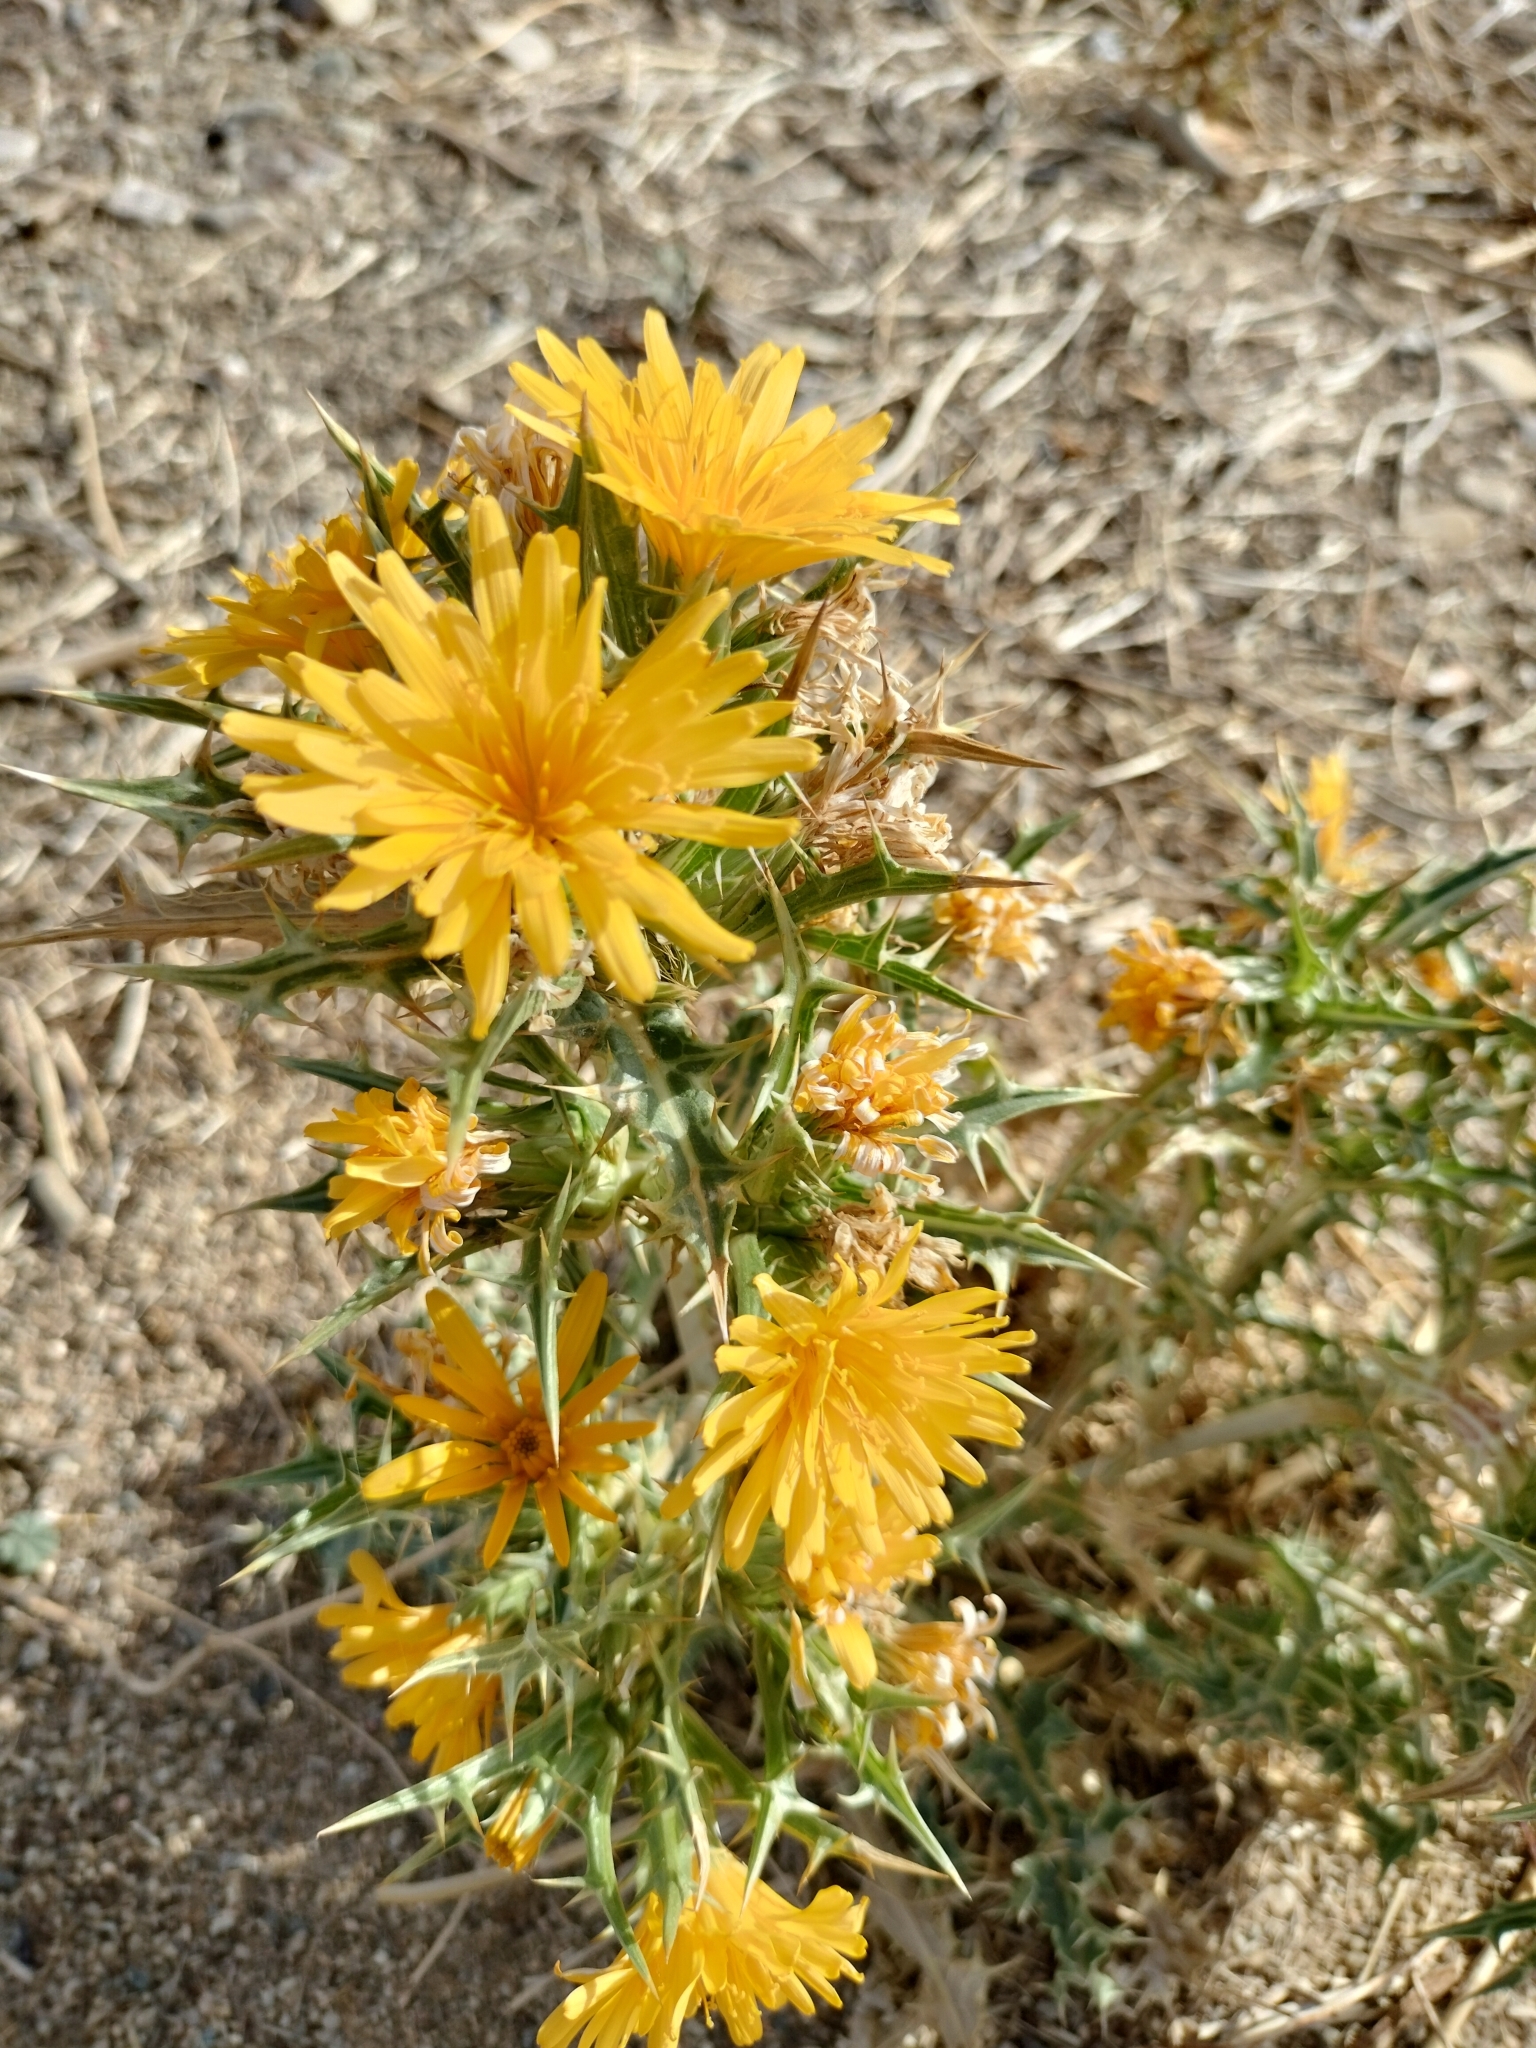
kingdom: Plantae
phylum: Tracheophyta
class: Magnoliopsida
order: Asterales
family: Asteraceae
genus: Scolymus
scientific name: Scolymus hispanicus
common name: Golden thistle
